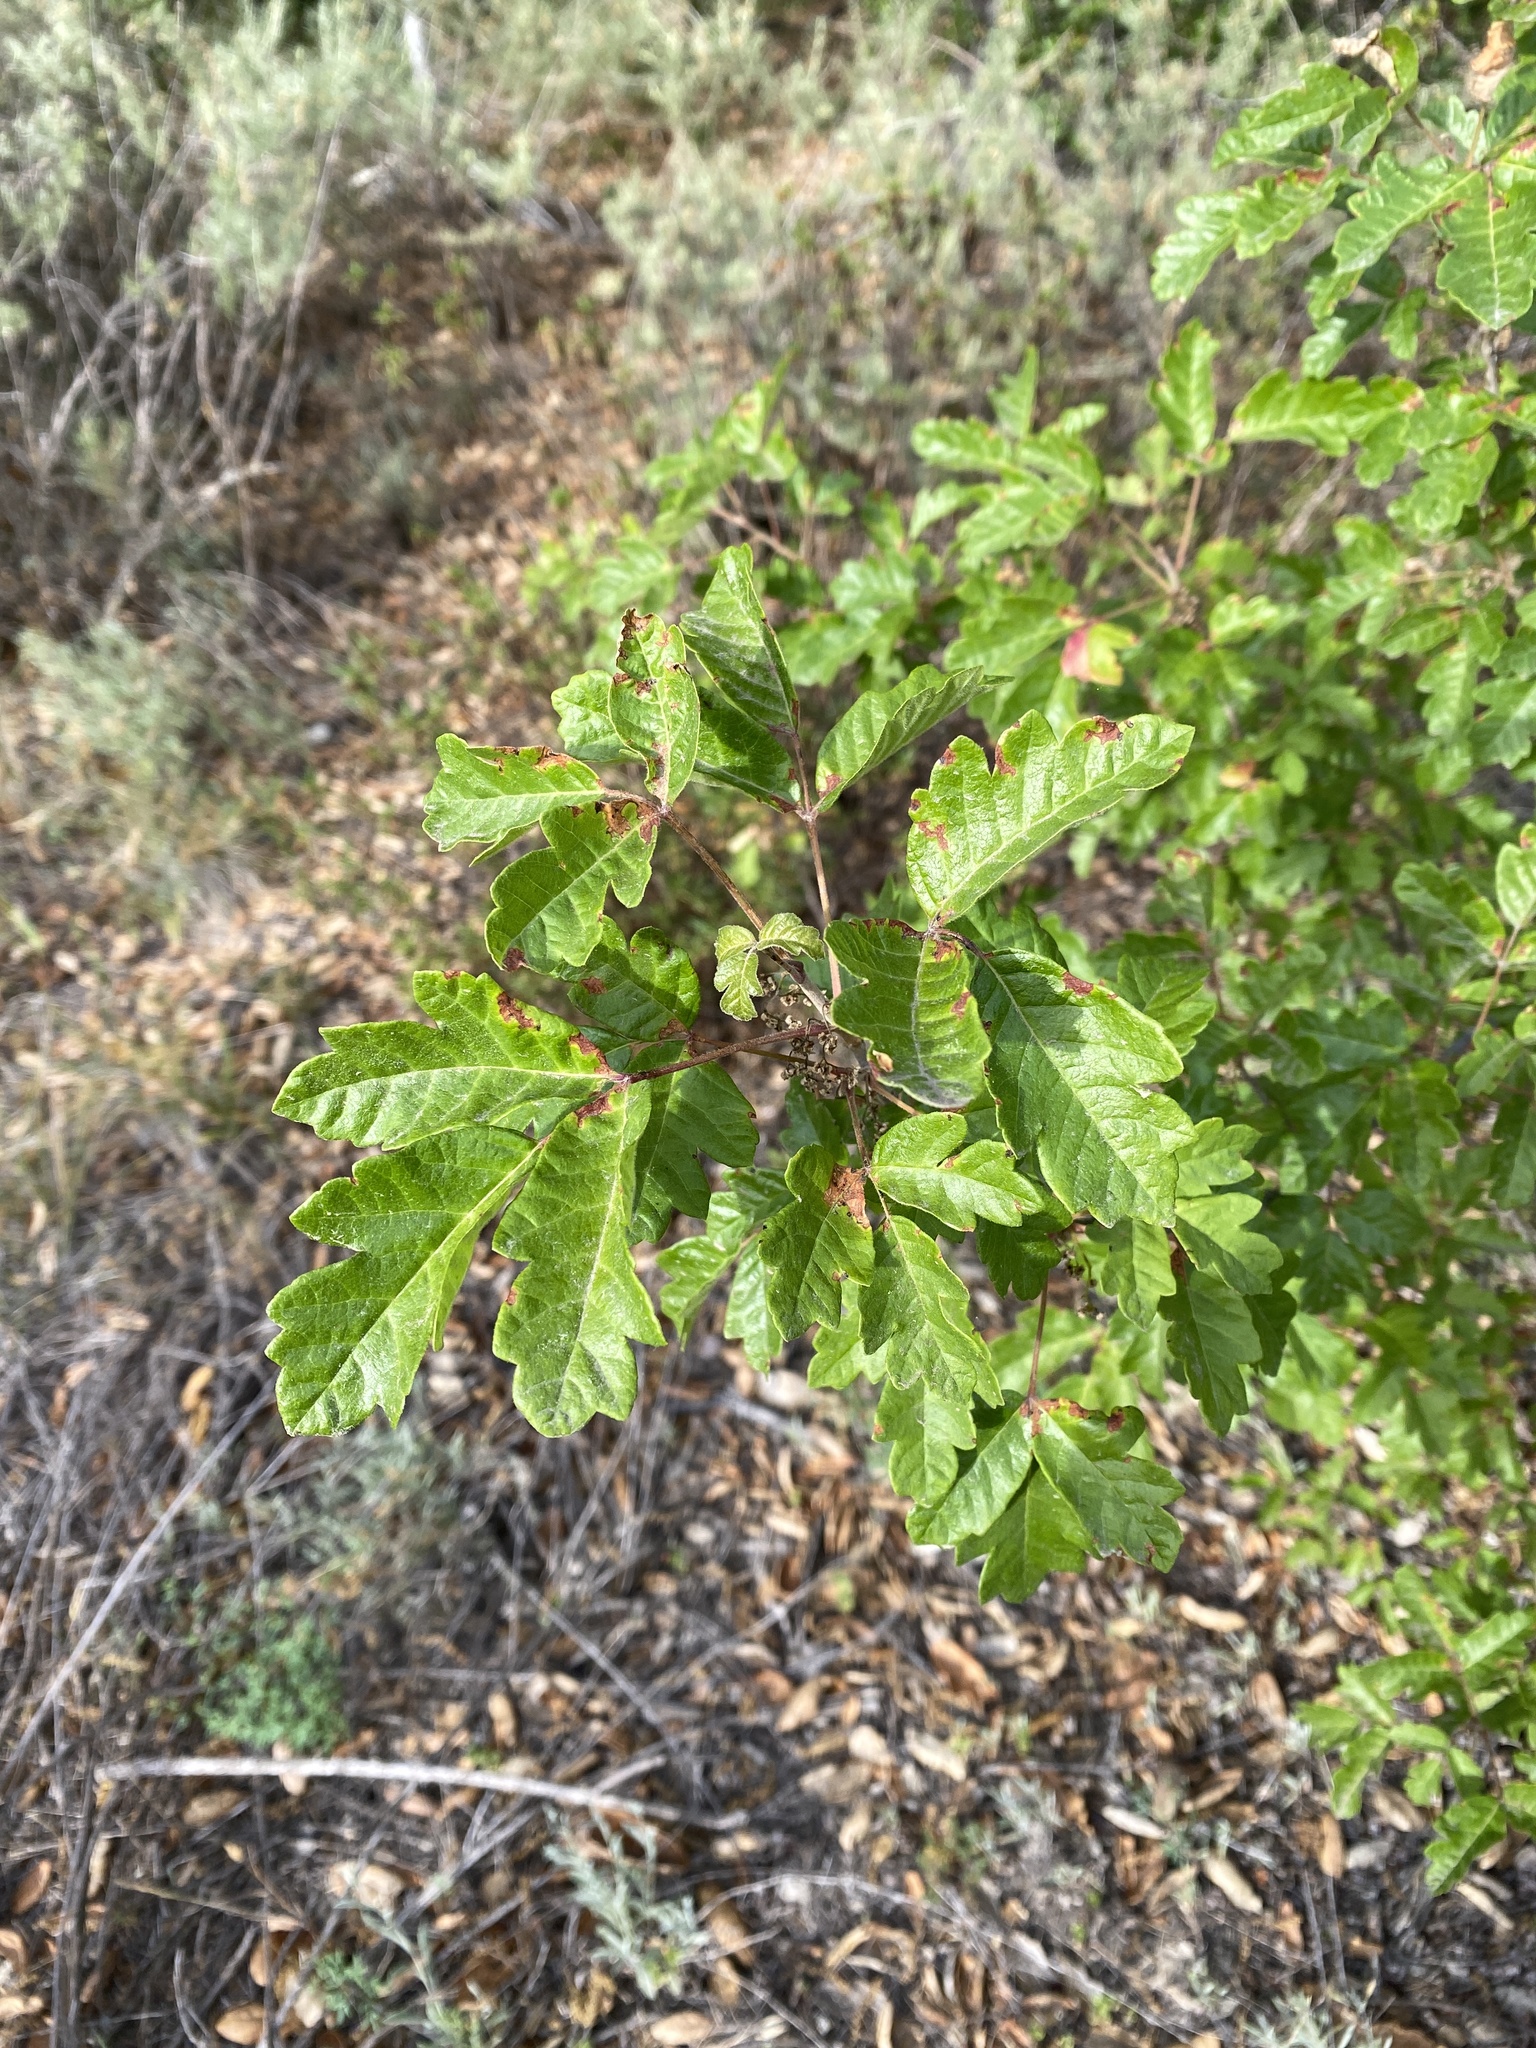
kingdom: Plantae
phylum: Tracheophyta
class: Magnoliopsida
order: Sapindales
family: Anacardiaceae
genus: Toxicodendron
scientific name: Toxicodendron diversilobum
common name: Pacific poison-oak
